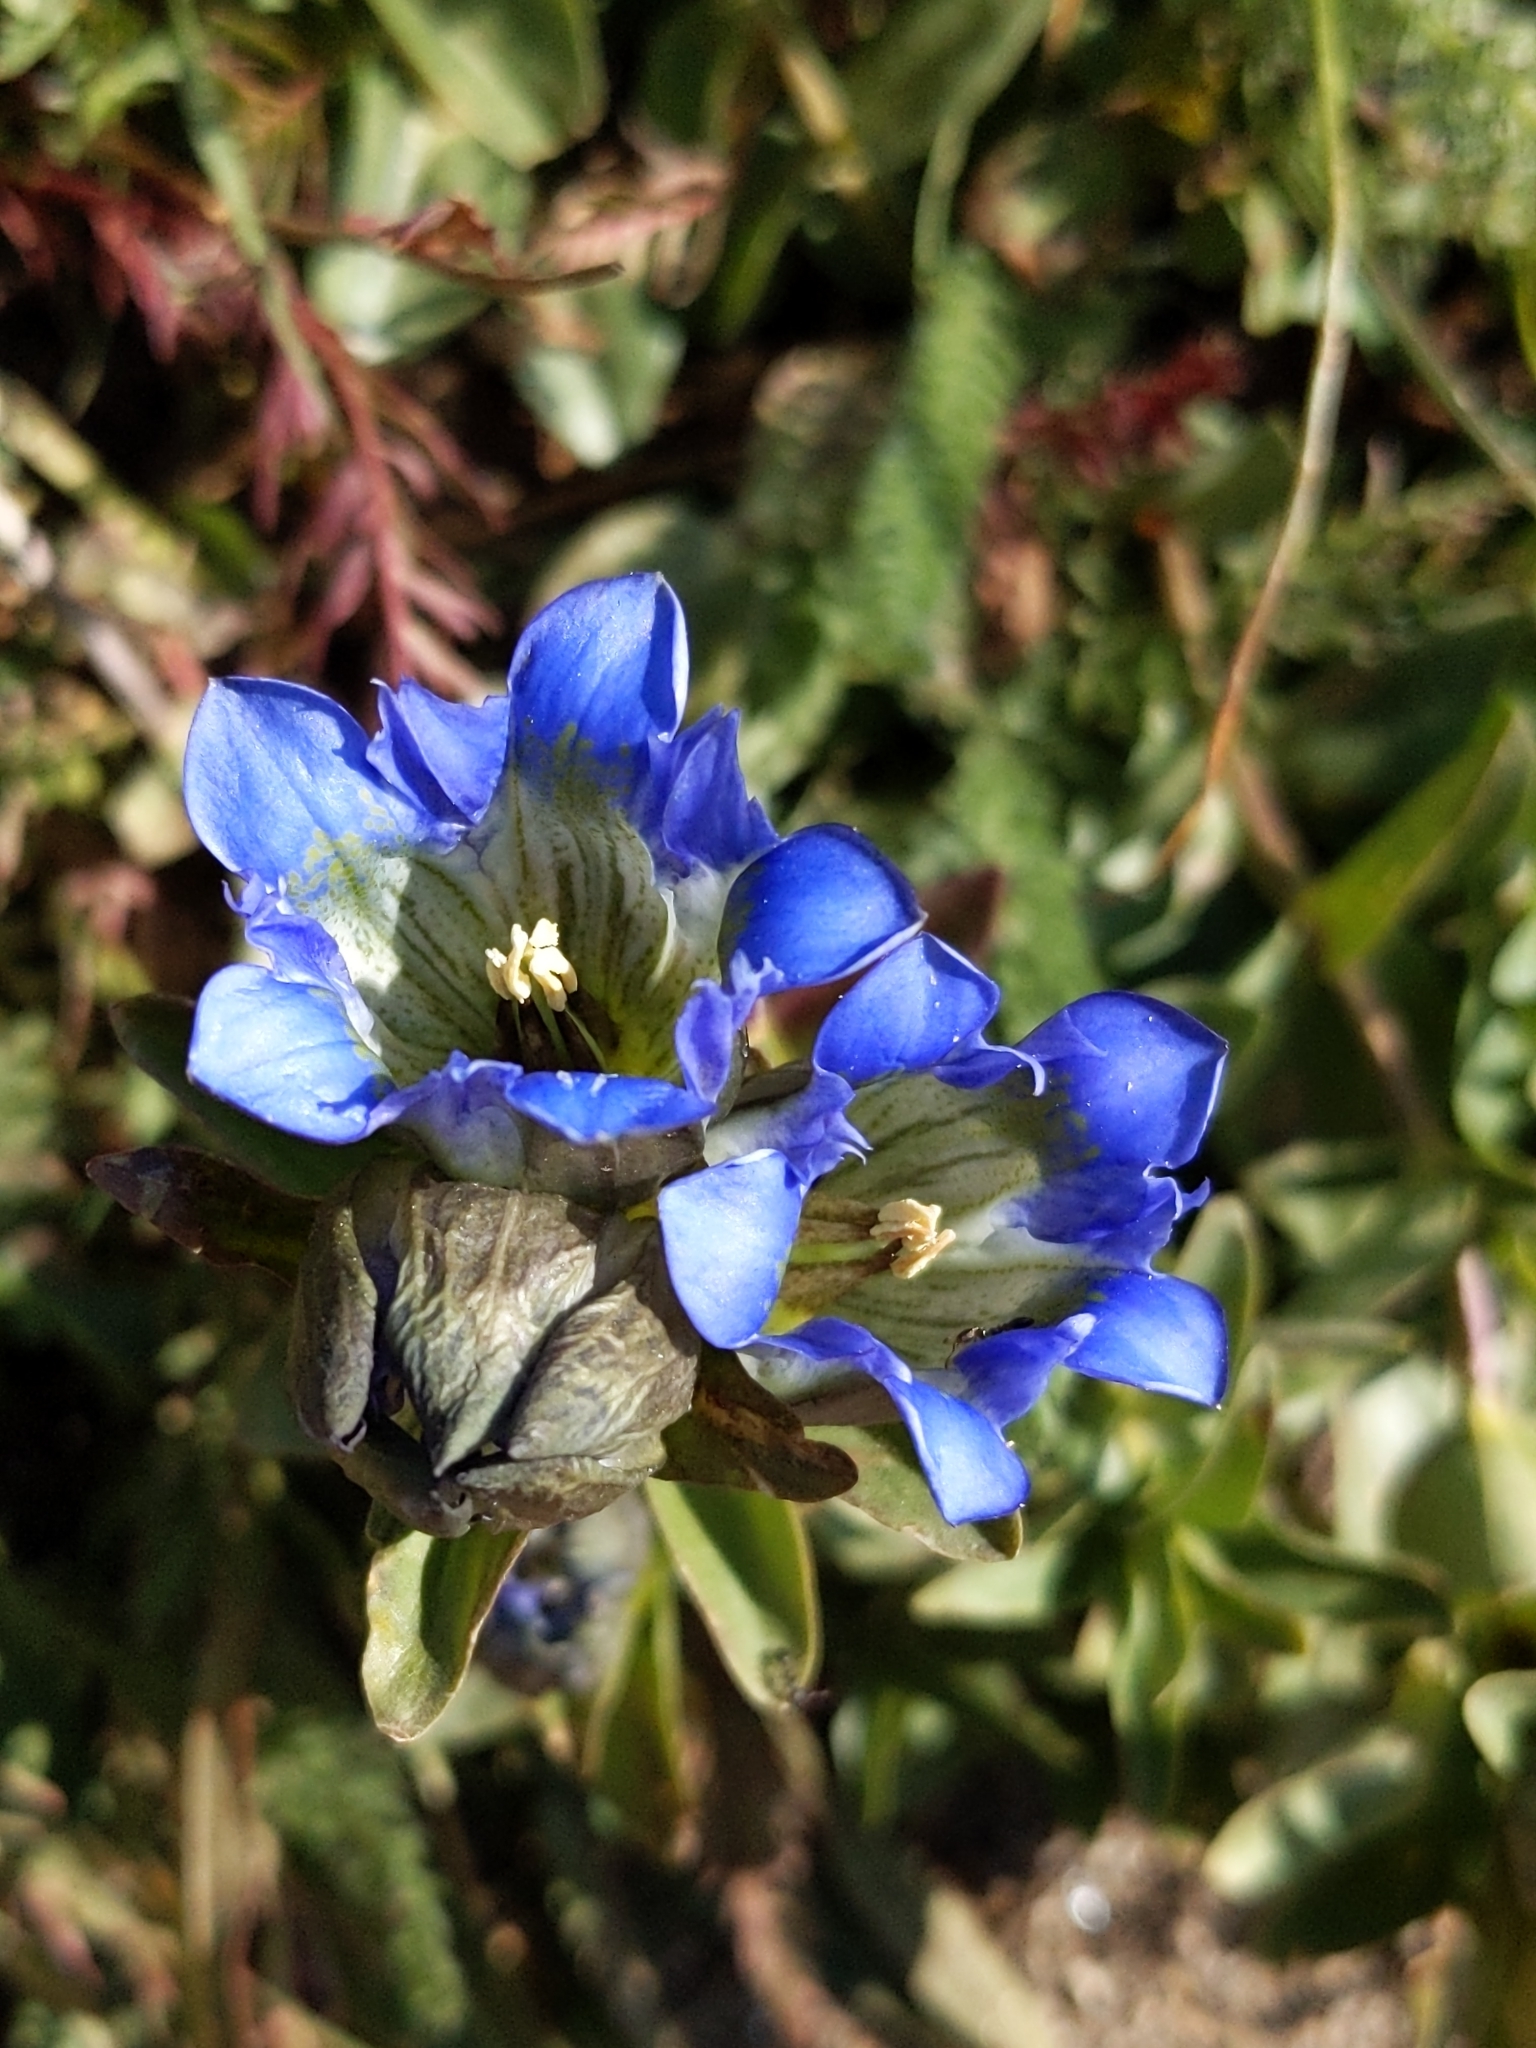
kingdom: Plantae
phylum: Tracheophyta
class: Magnoliopsida
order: Gentianales
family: Gentianaceae
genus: Gentiana
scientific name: Gentiana parryi
